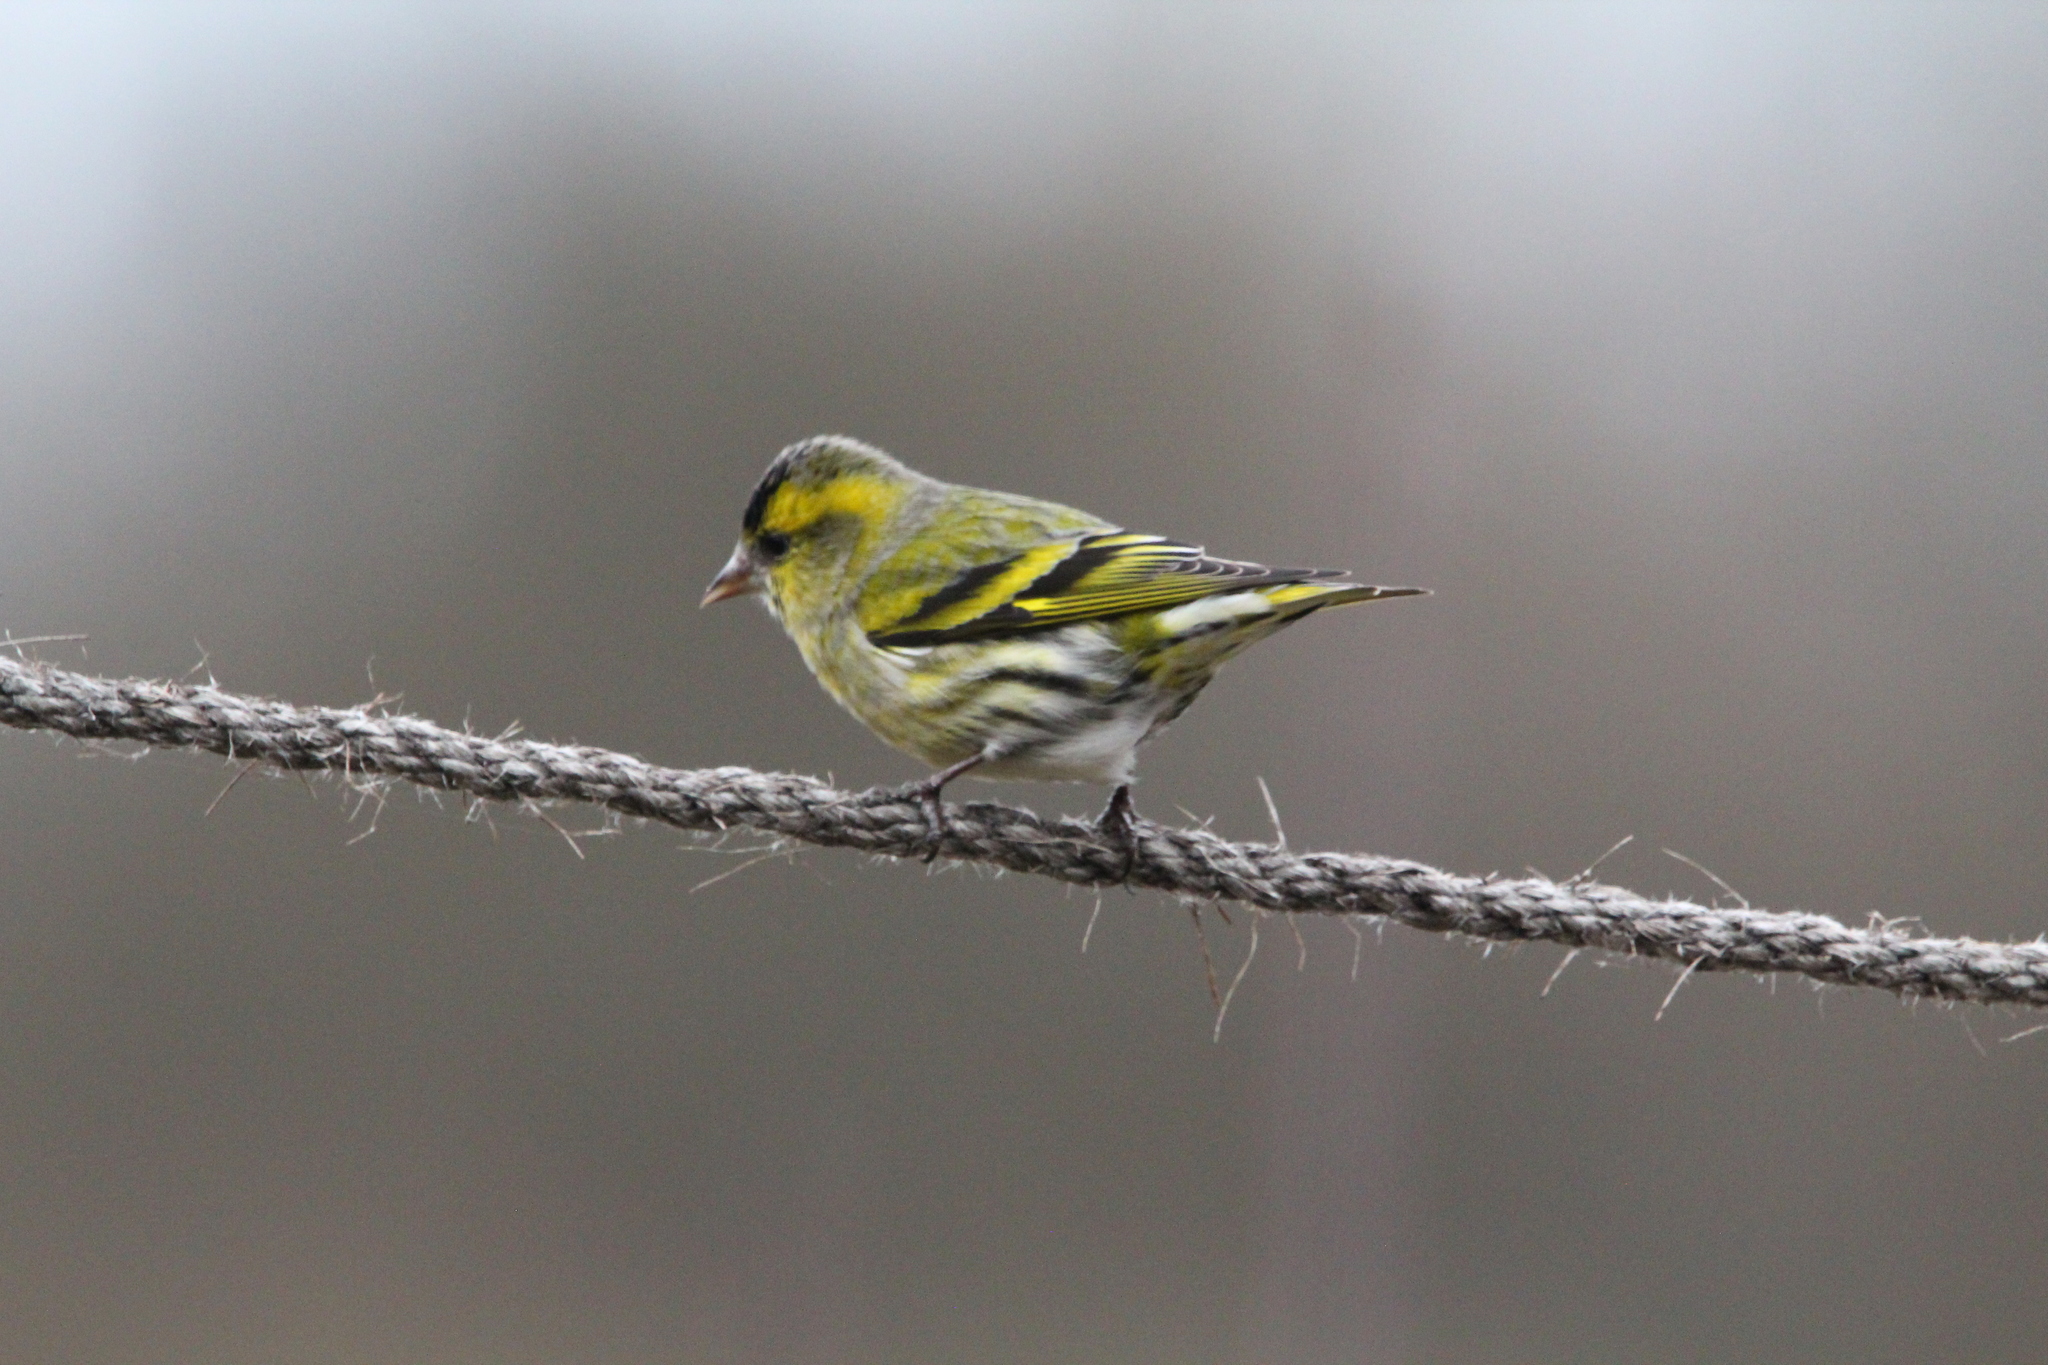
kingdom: Animalia
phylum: Chordata
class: Aves
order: Passeriformes
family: Fringillidae
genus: Spinus
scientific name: Spinus spinus
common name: Eurasian siskin
